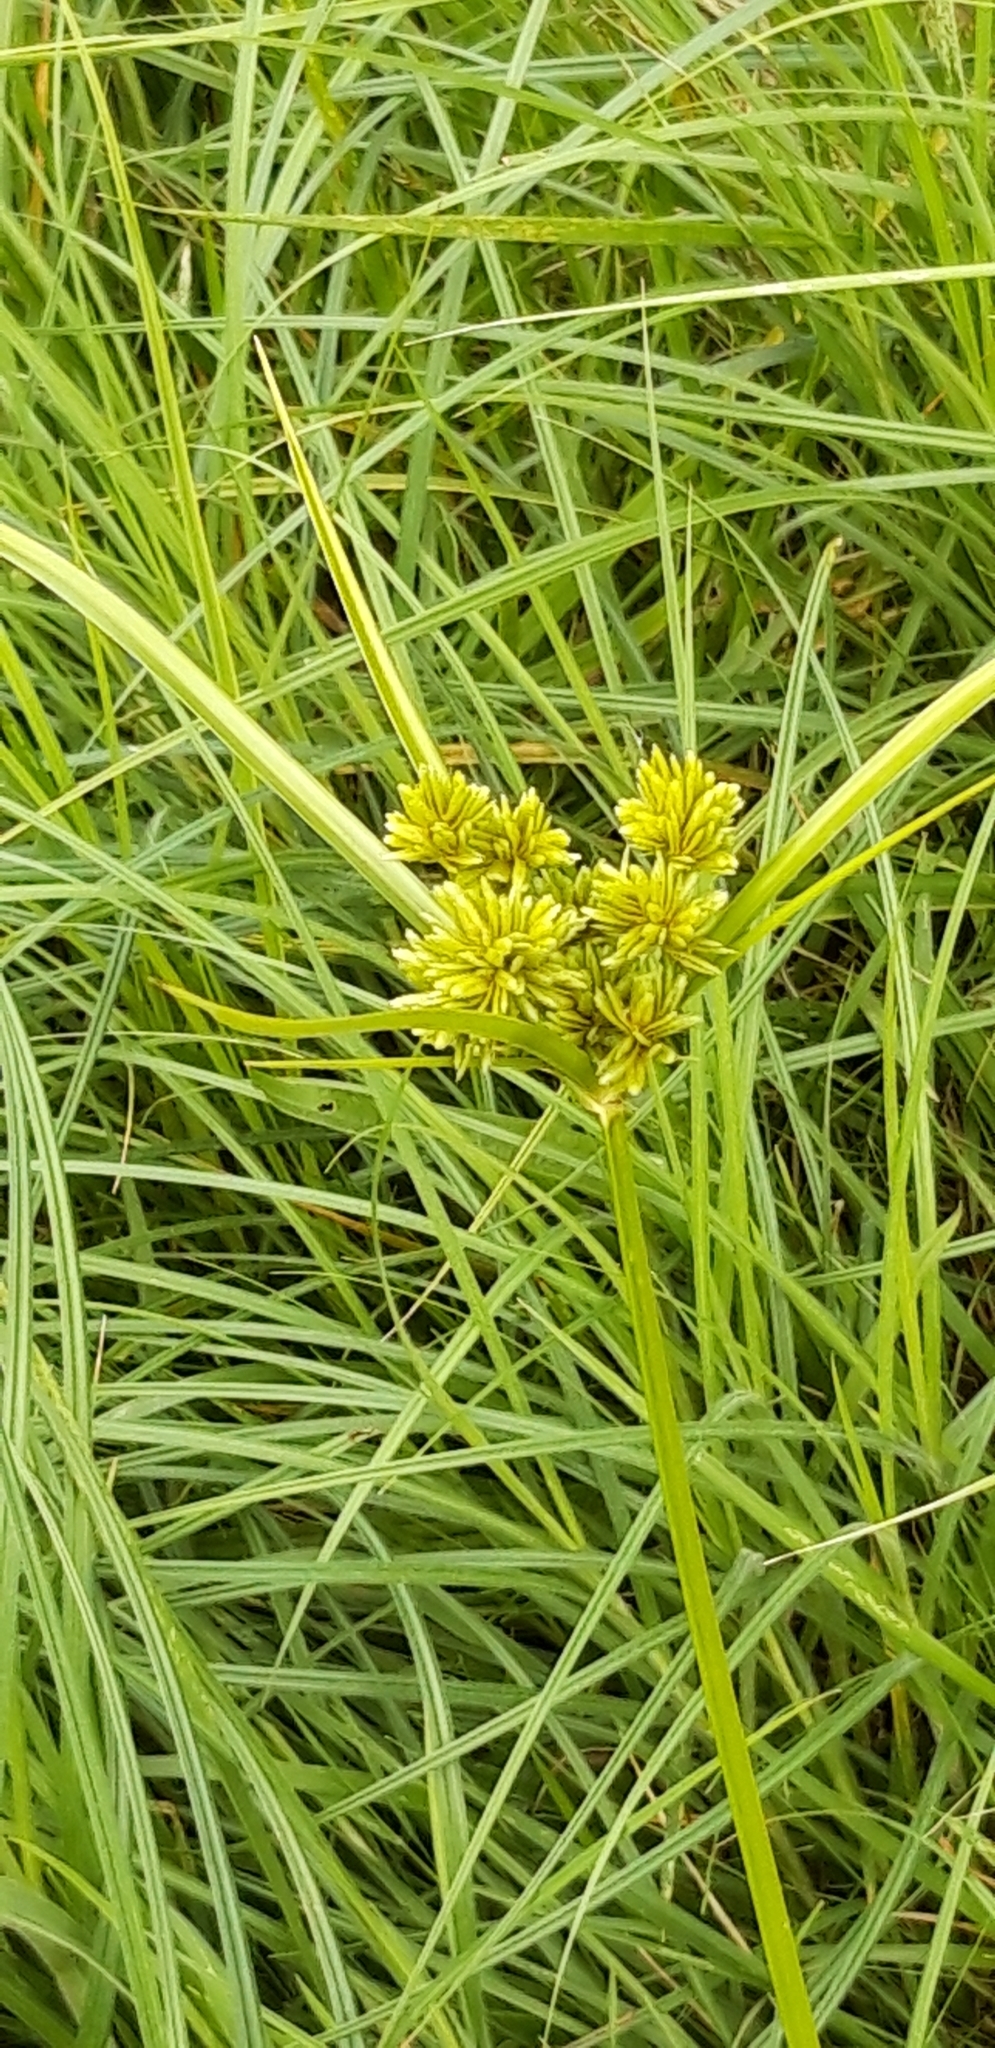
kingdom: Plantae
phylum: Tracheophyta
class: Liliopsida
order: Poales
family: Cyperaceae
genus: Cyperus
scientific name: Cyperus eragrostis
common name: Tall flatsedge
